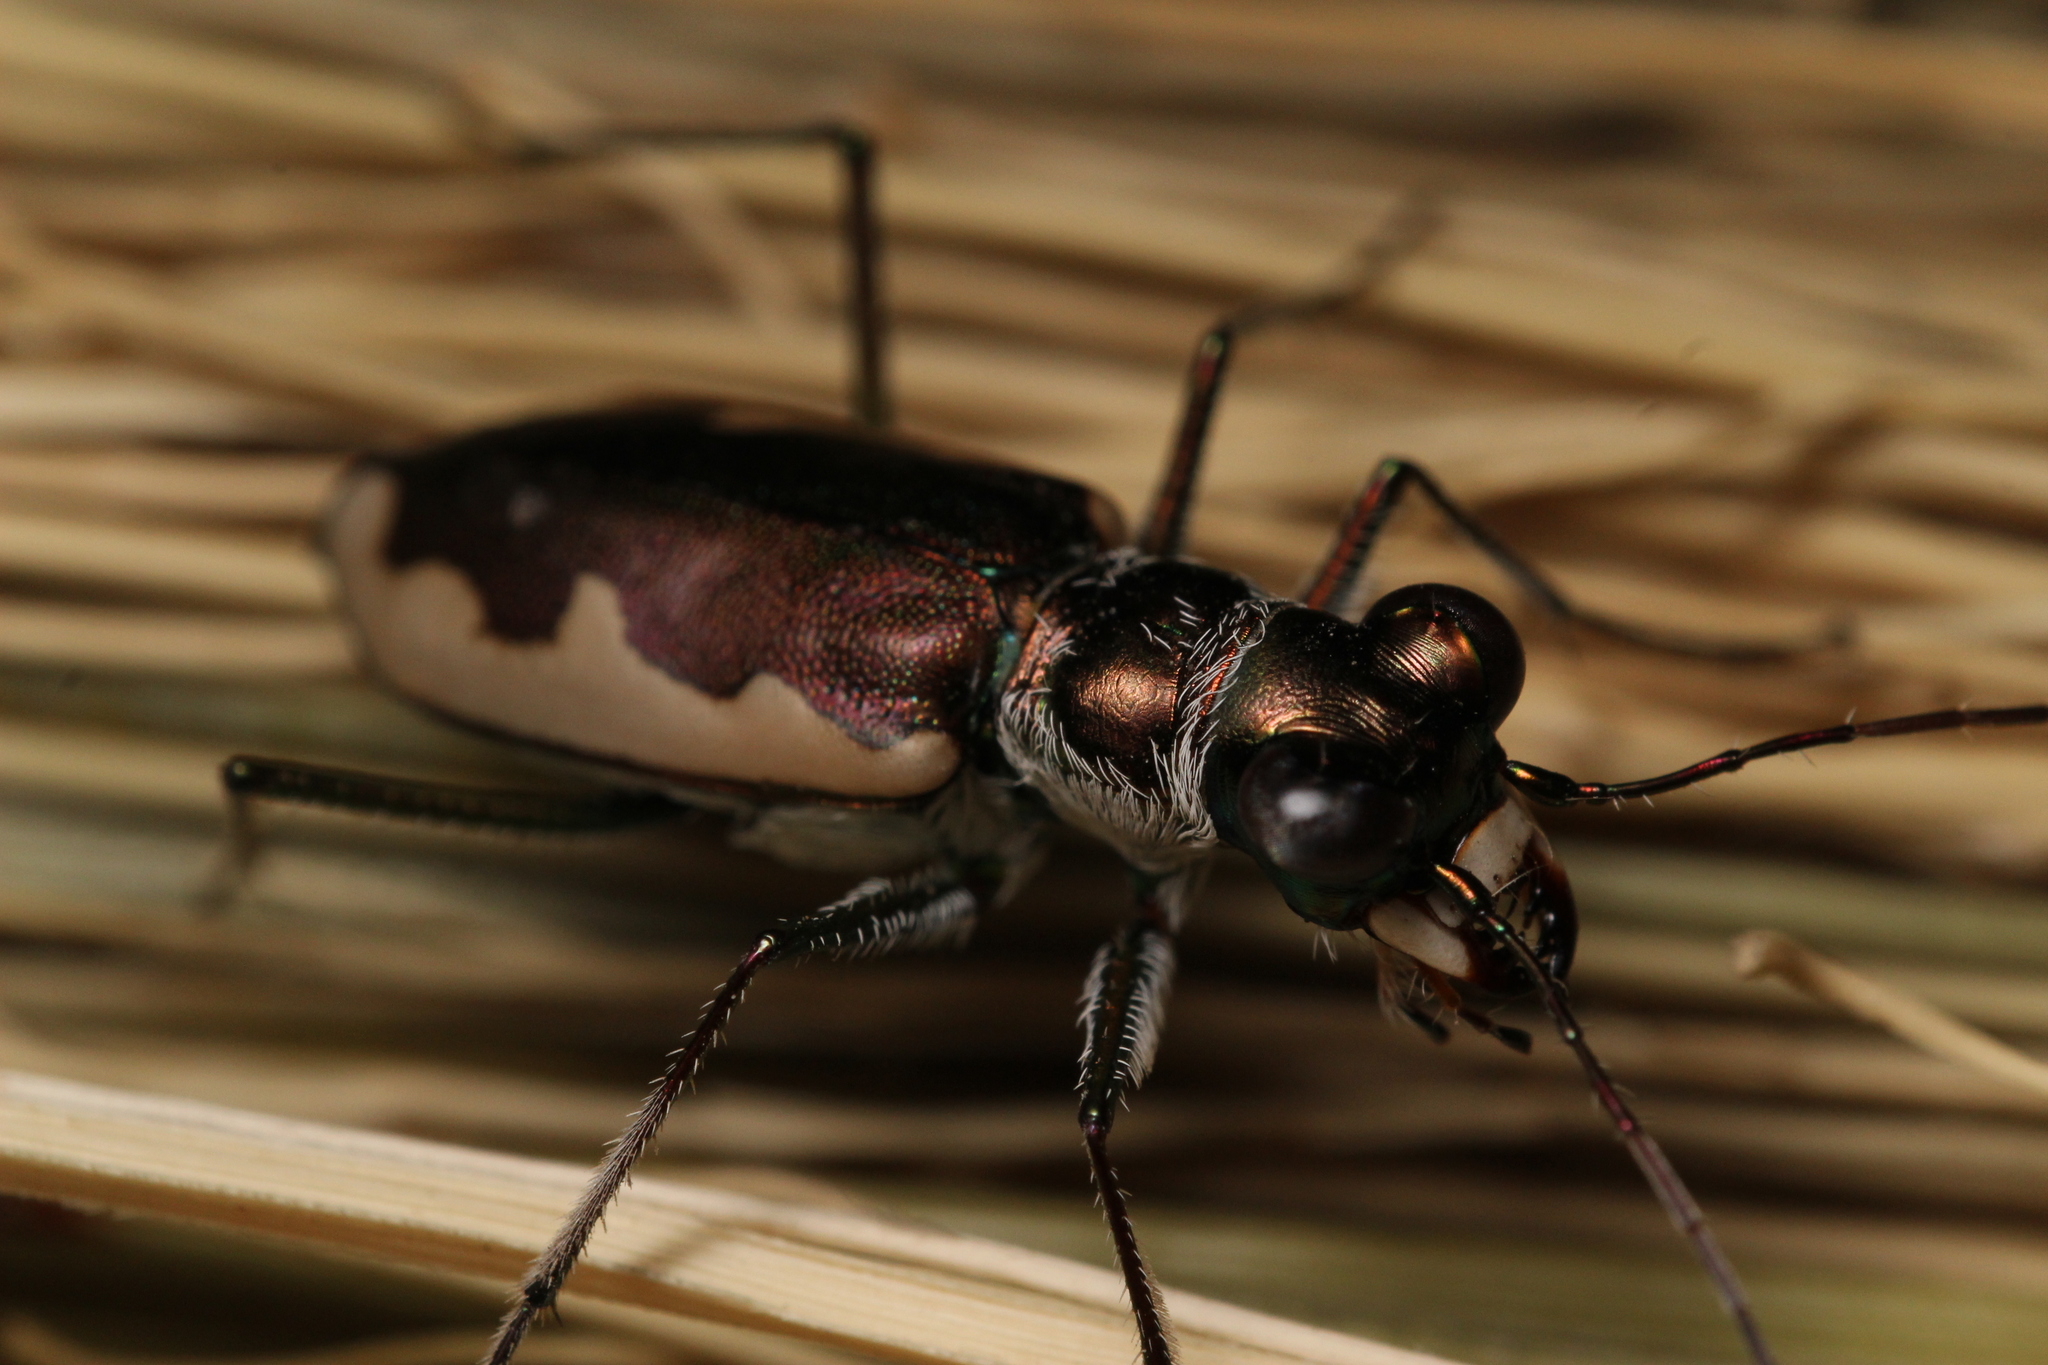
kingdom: Animalia
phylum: Arthropoda
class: Insecta
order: Coleoptera
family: Carabidae
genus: Eunota
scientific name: Eunota circumpicta
